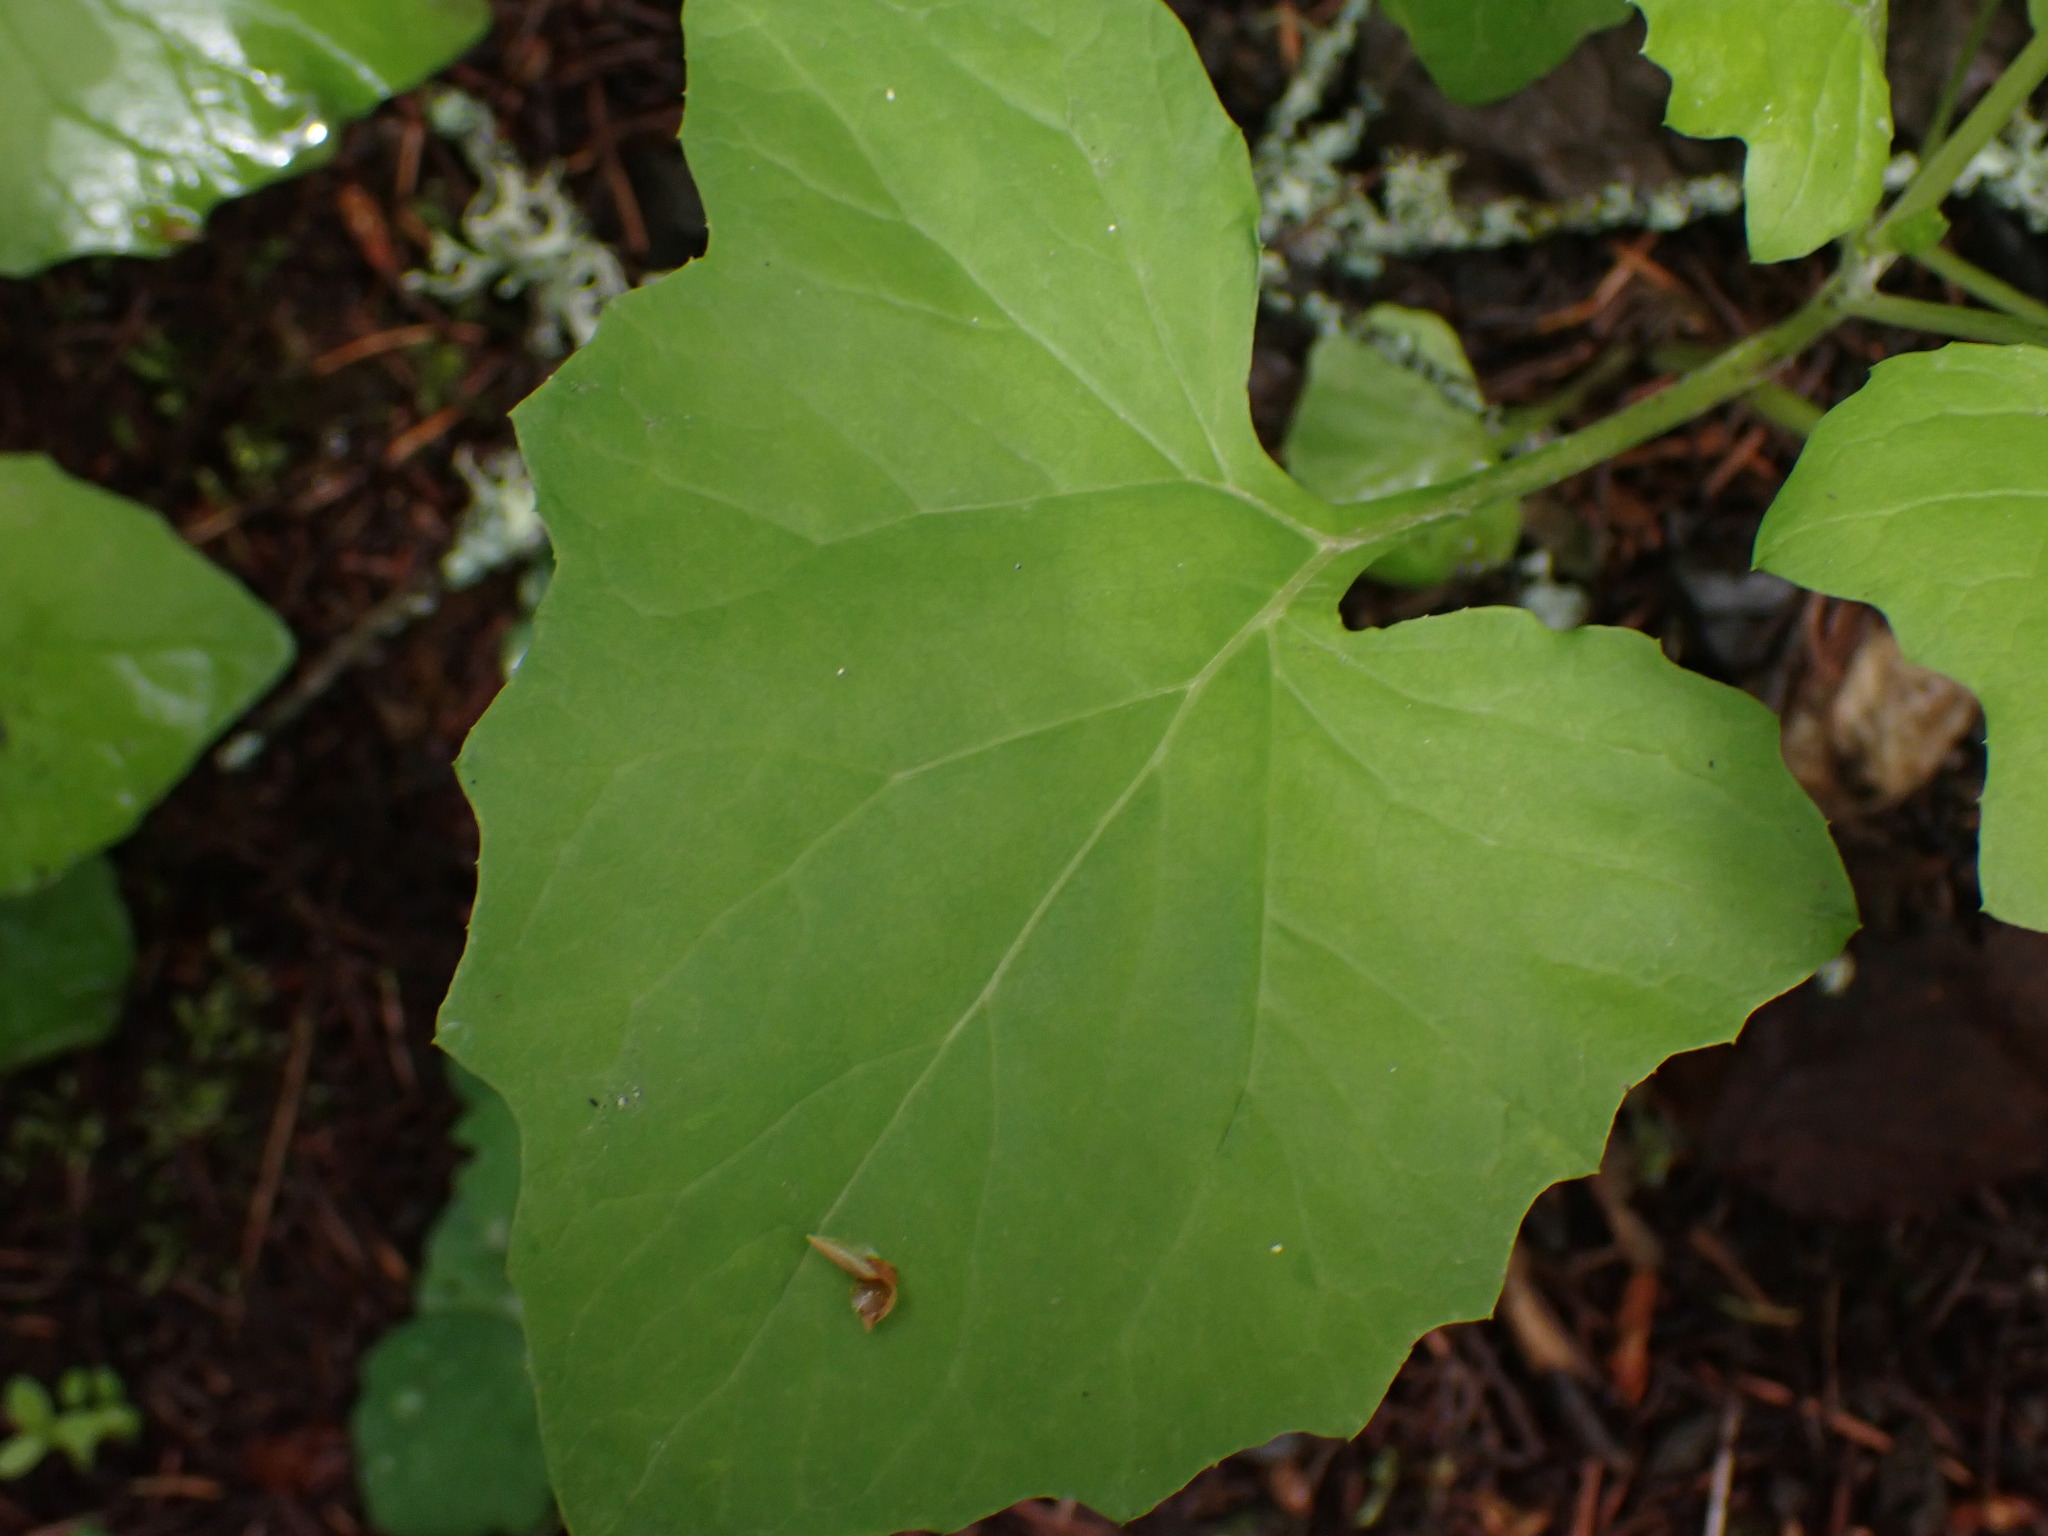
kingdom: Plantae
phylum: Tracheophyta
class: Magnoliopsida
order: Asterales
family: Asteraceae
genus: Adenocaulon
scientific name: Adenocaulon bicolor
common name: Trailplant
